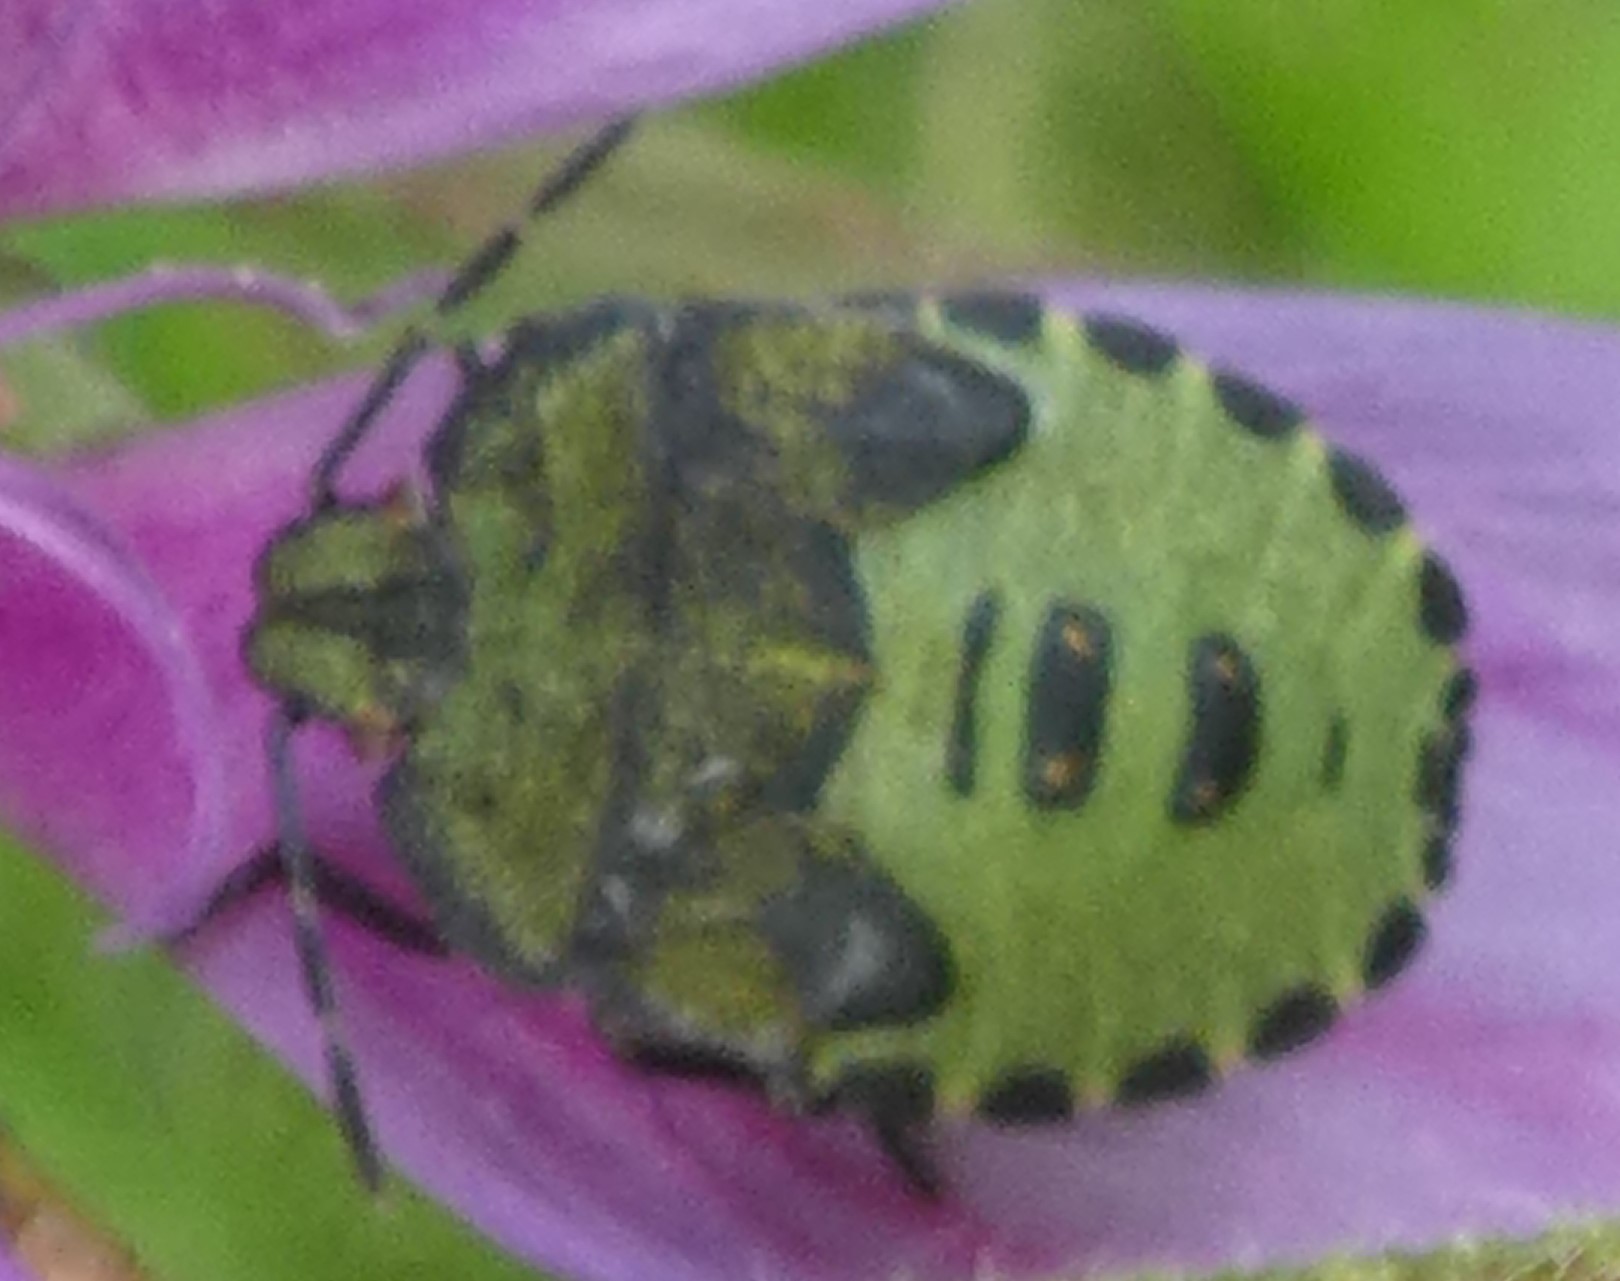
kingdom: Animalia
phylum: Arthropoda
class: Insecta
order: Hemiptera
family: Pentatomidae
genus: Palomena
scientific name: Palomena prasina
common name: Green shieldbug
